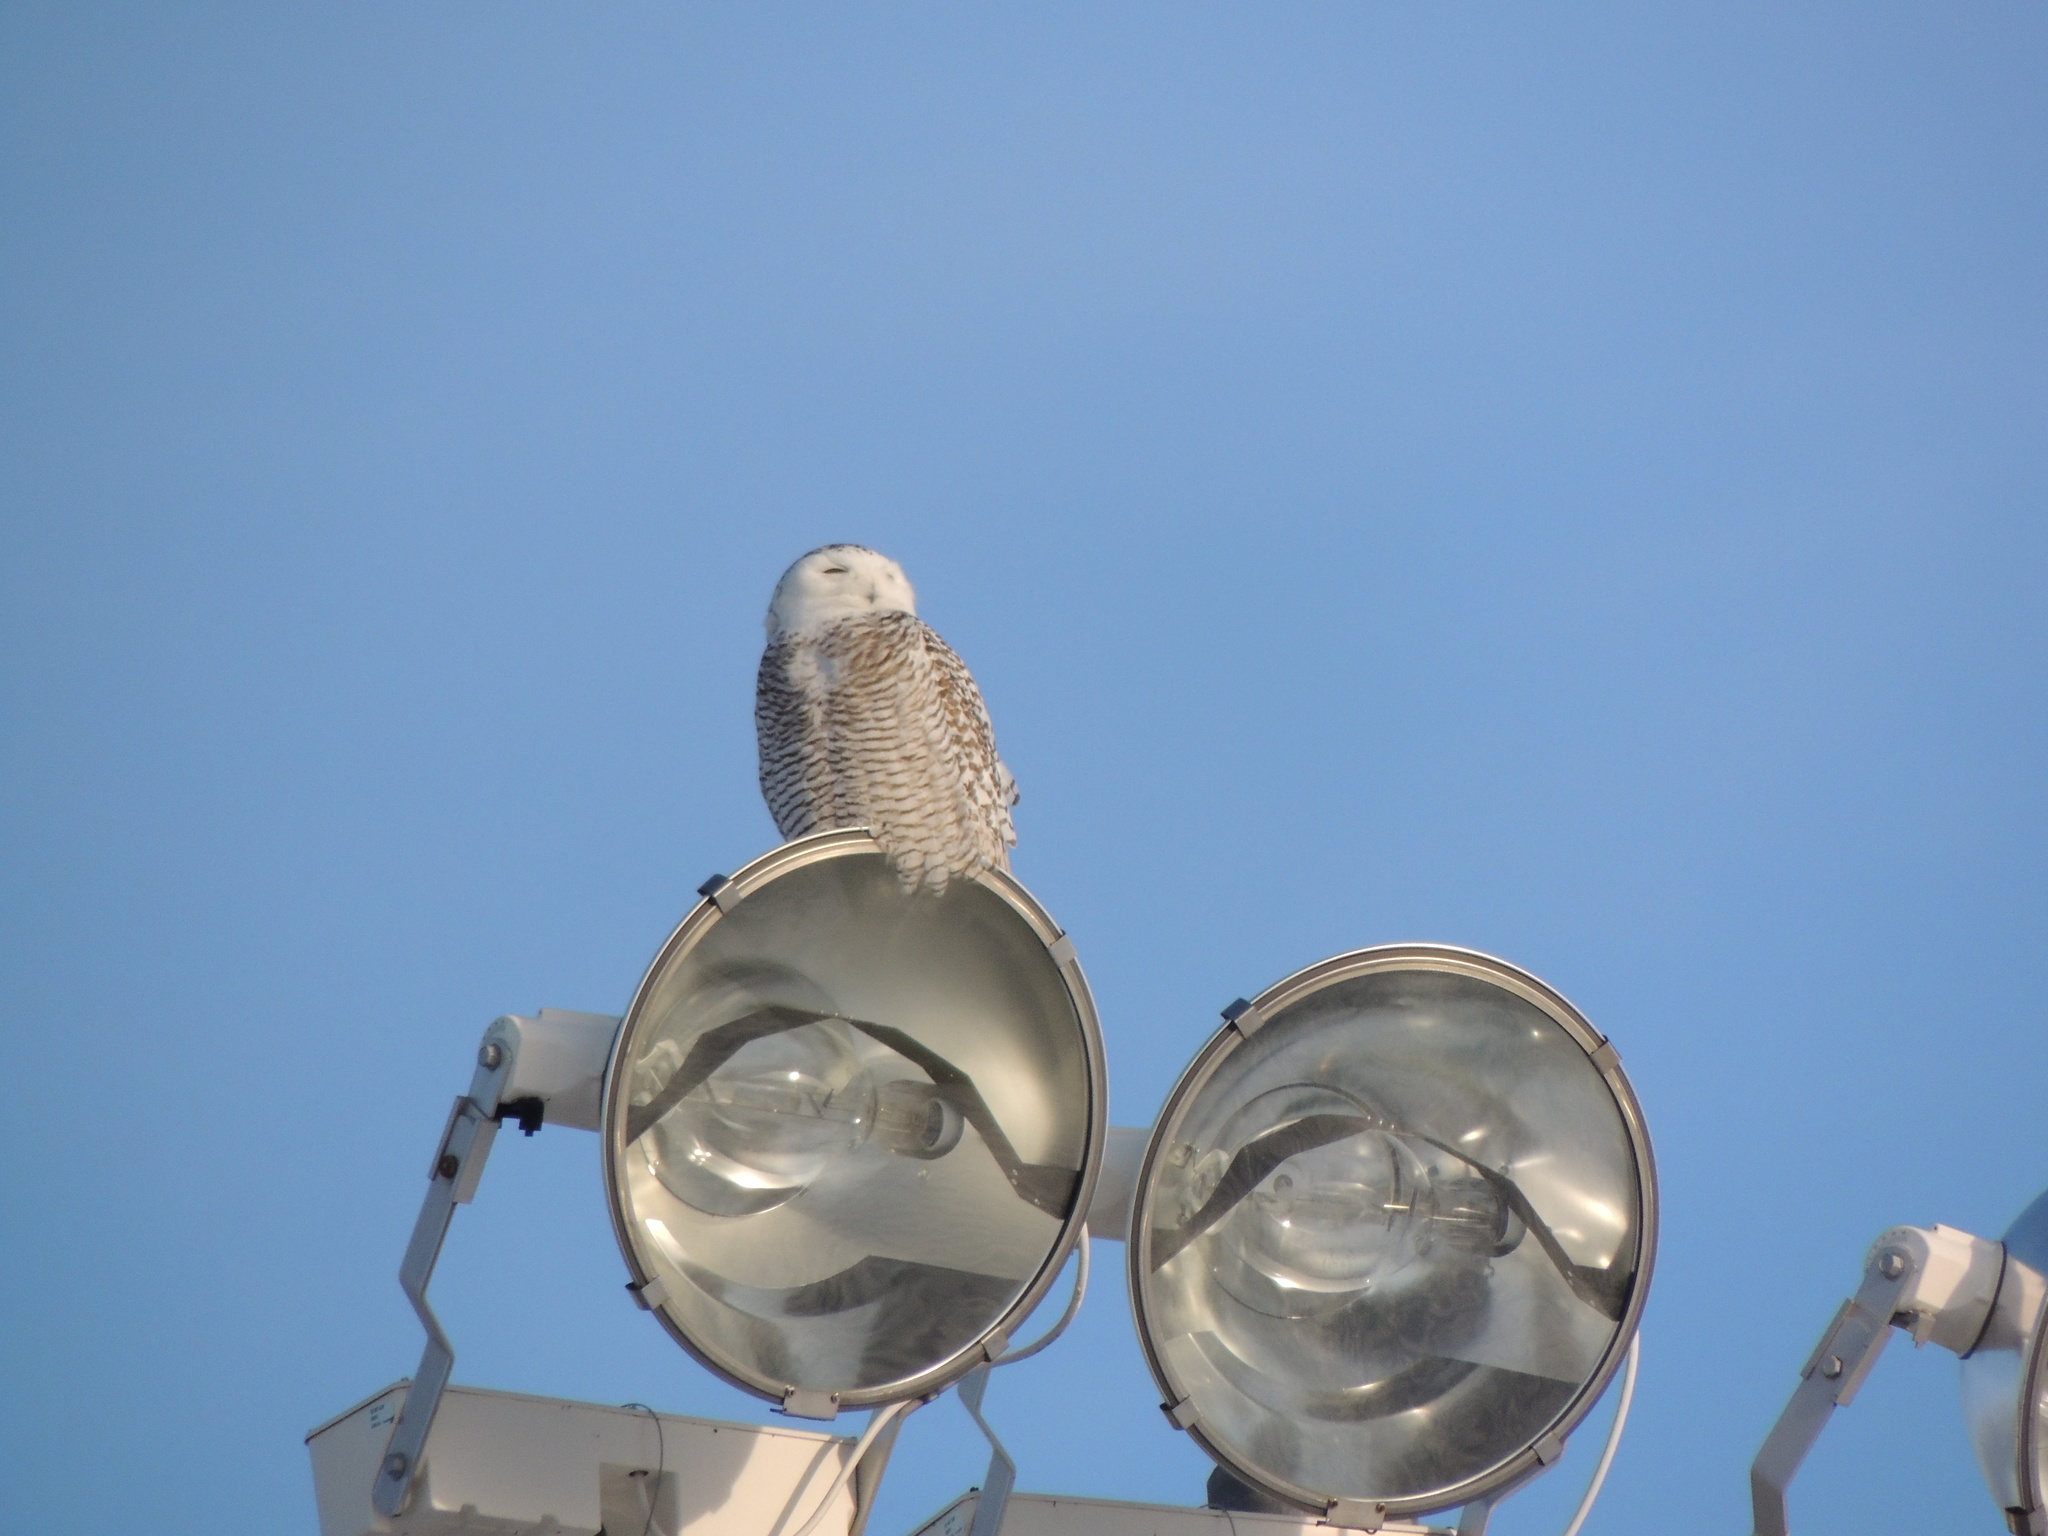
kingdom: Animalia
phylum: Chordata
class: Aves
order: Strigiformes
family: Strigidae
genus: Bubo
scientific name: Bubo scandiacus
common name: Snowy owl
